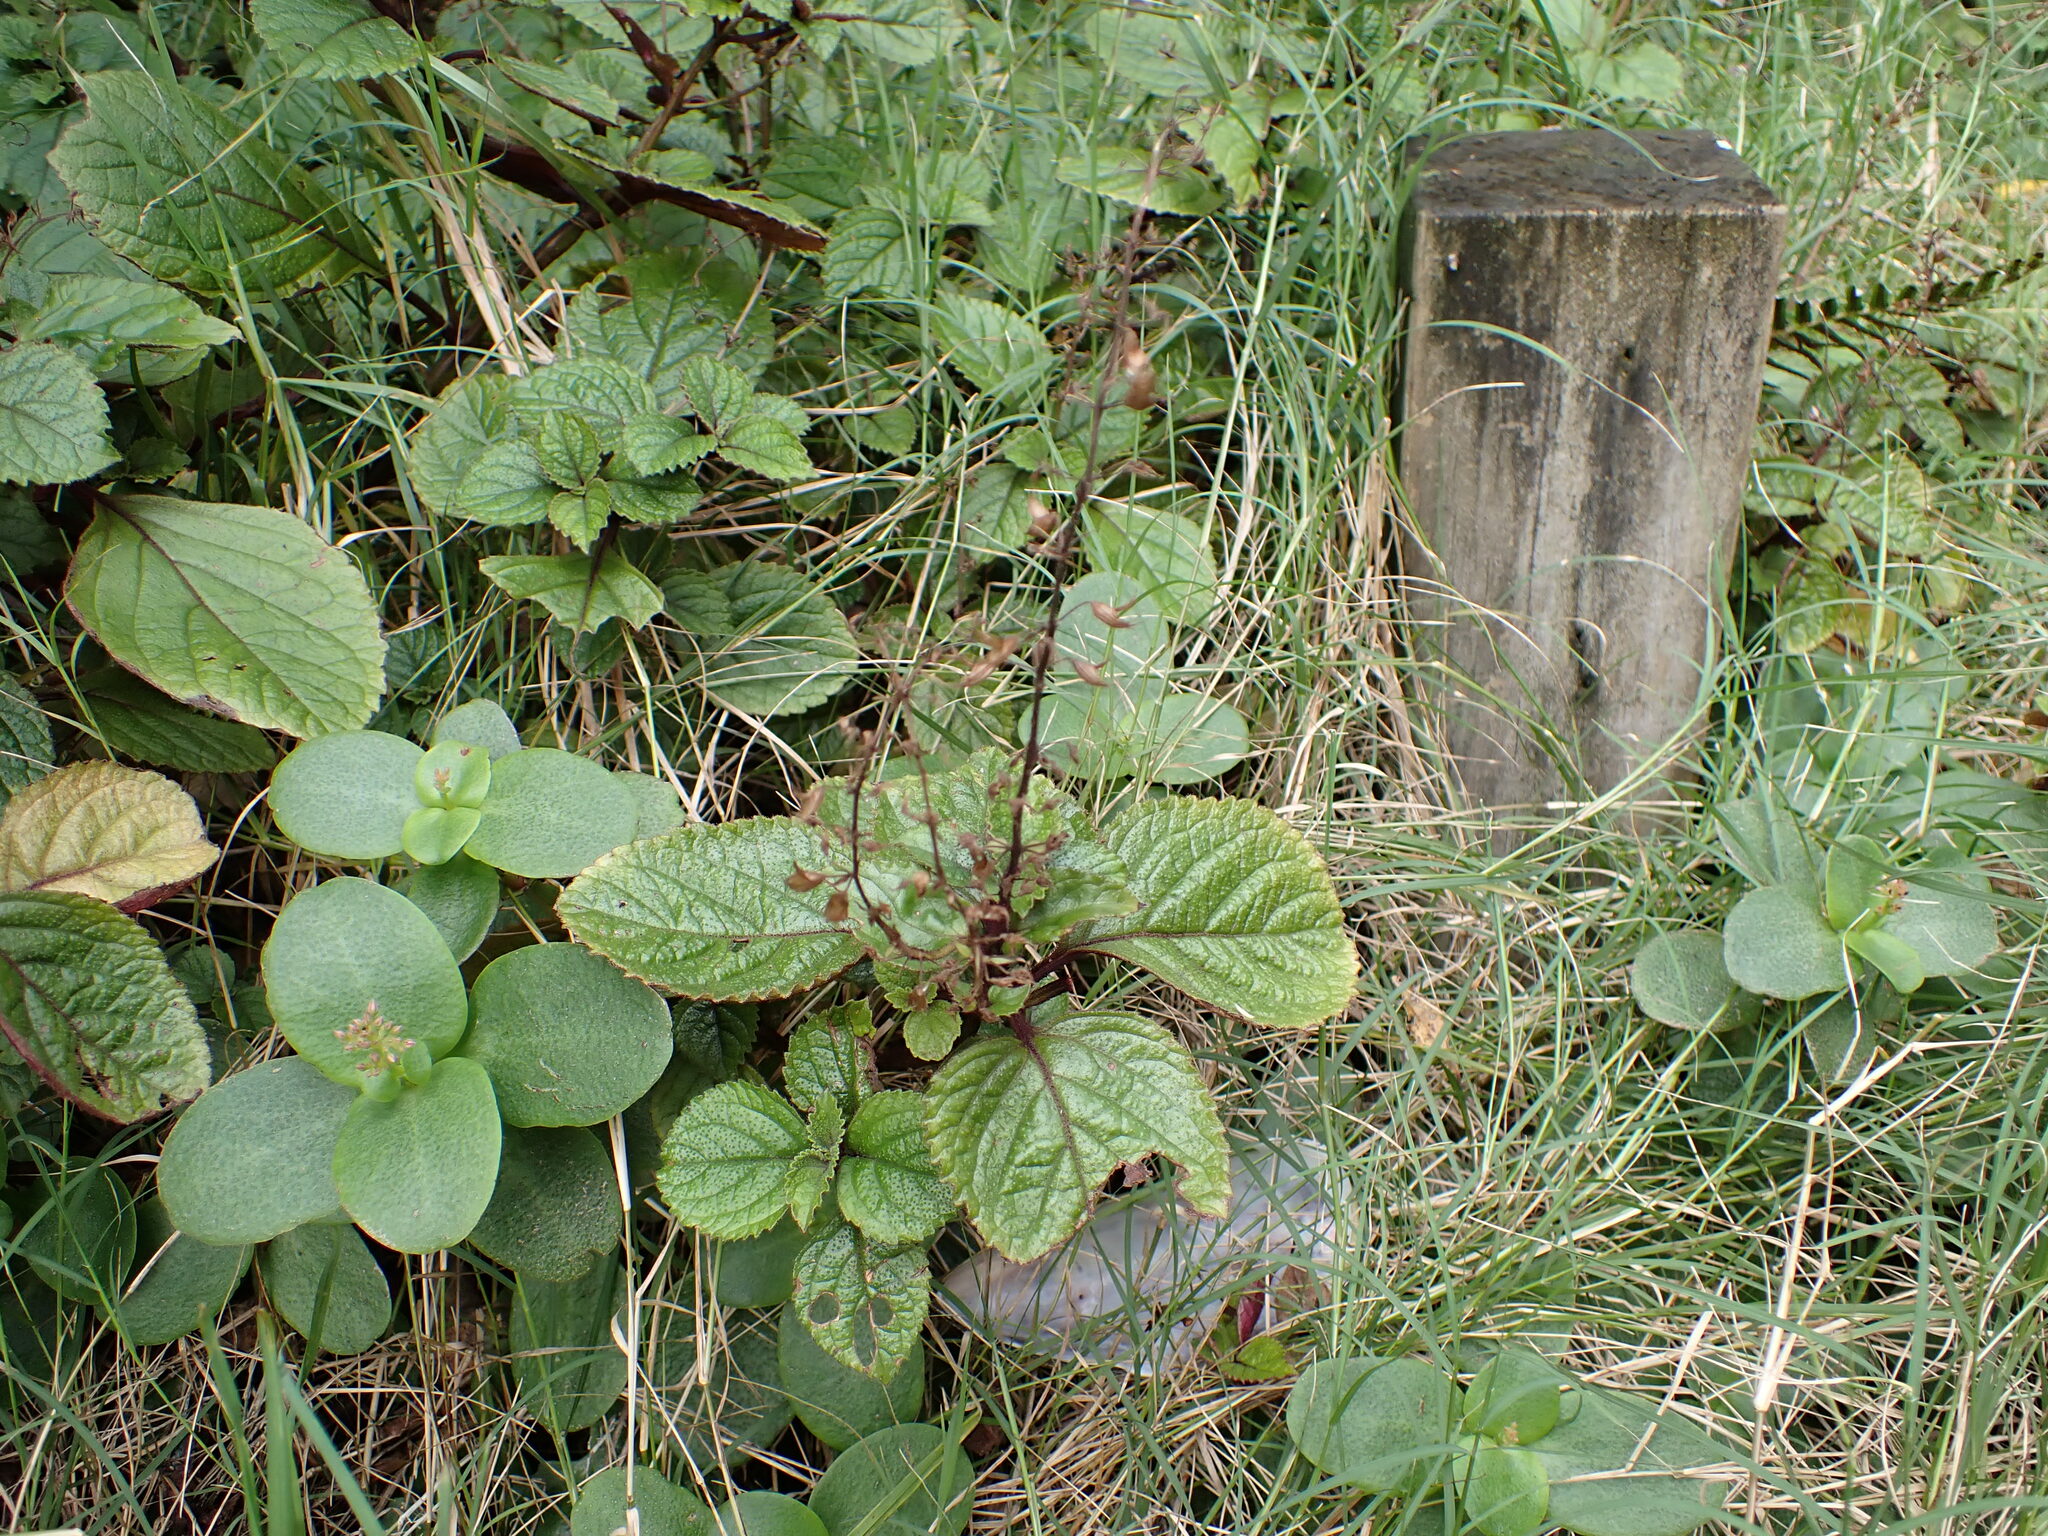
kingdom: Plantae
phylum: Tracheophyta
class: Magnoliopsida
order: Lamiales
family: Lamiaceae
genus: Plectranthus
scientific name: Plectranthus ciliatus
